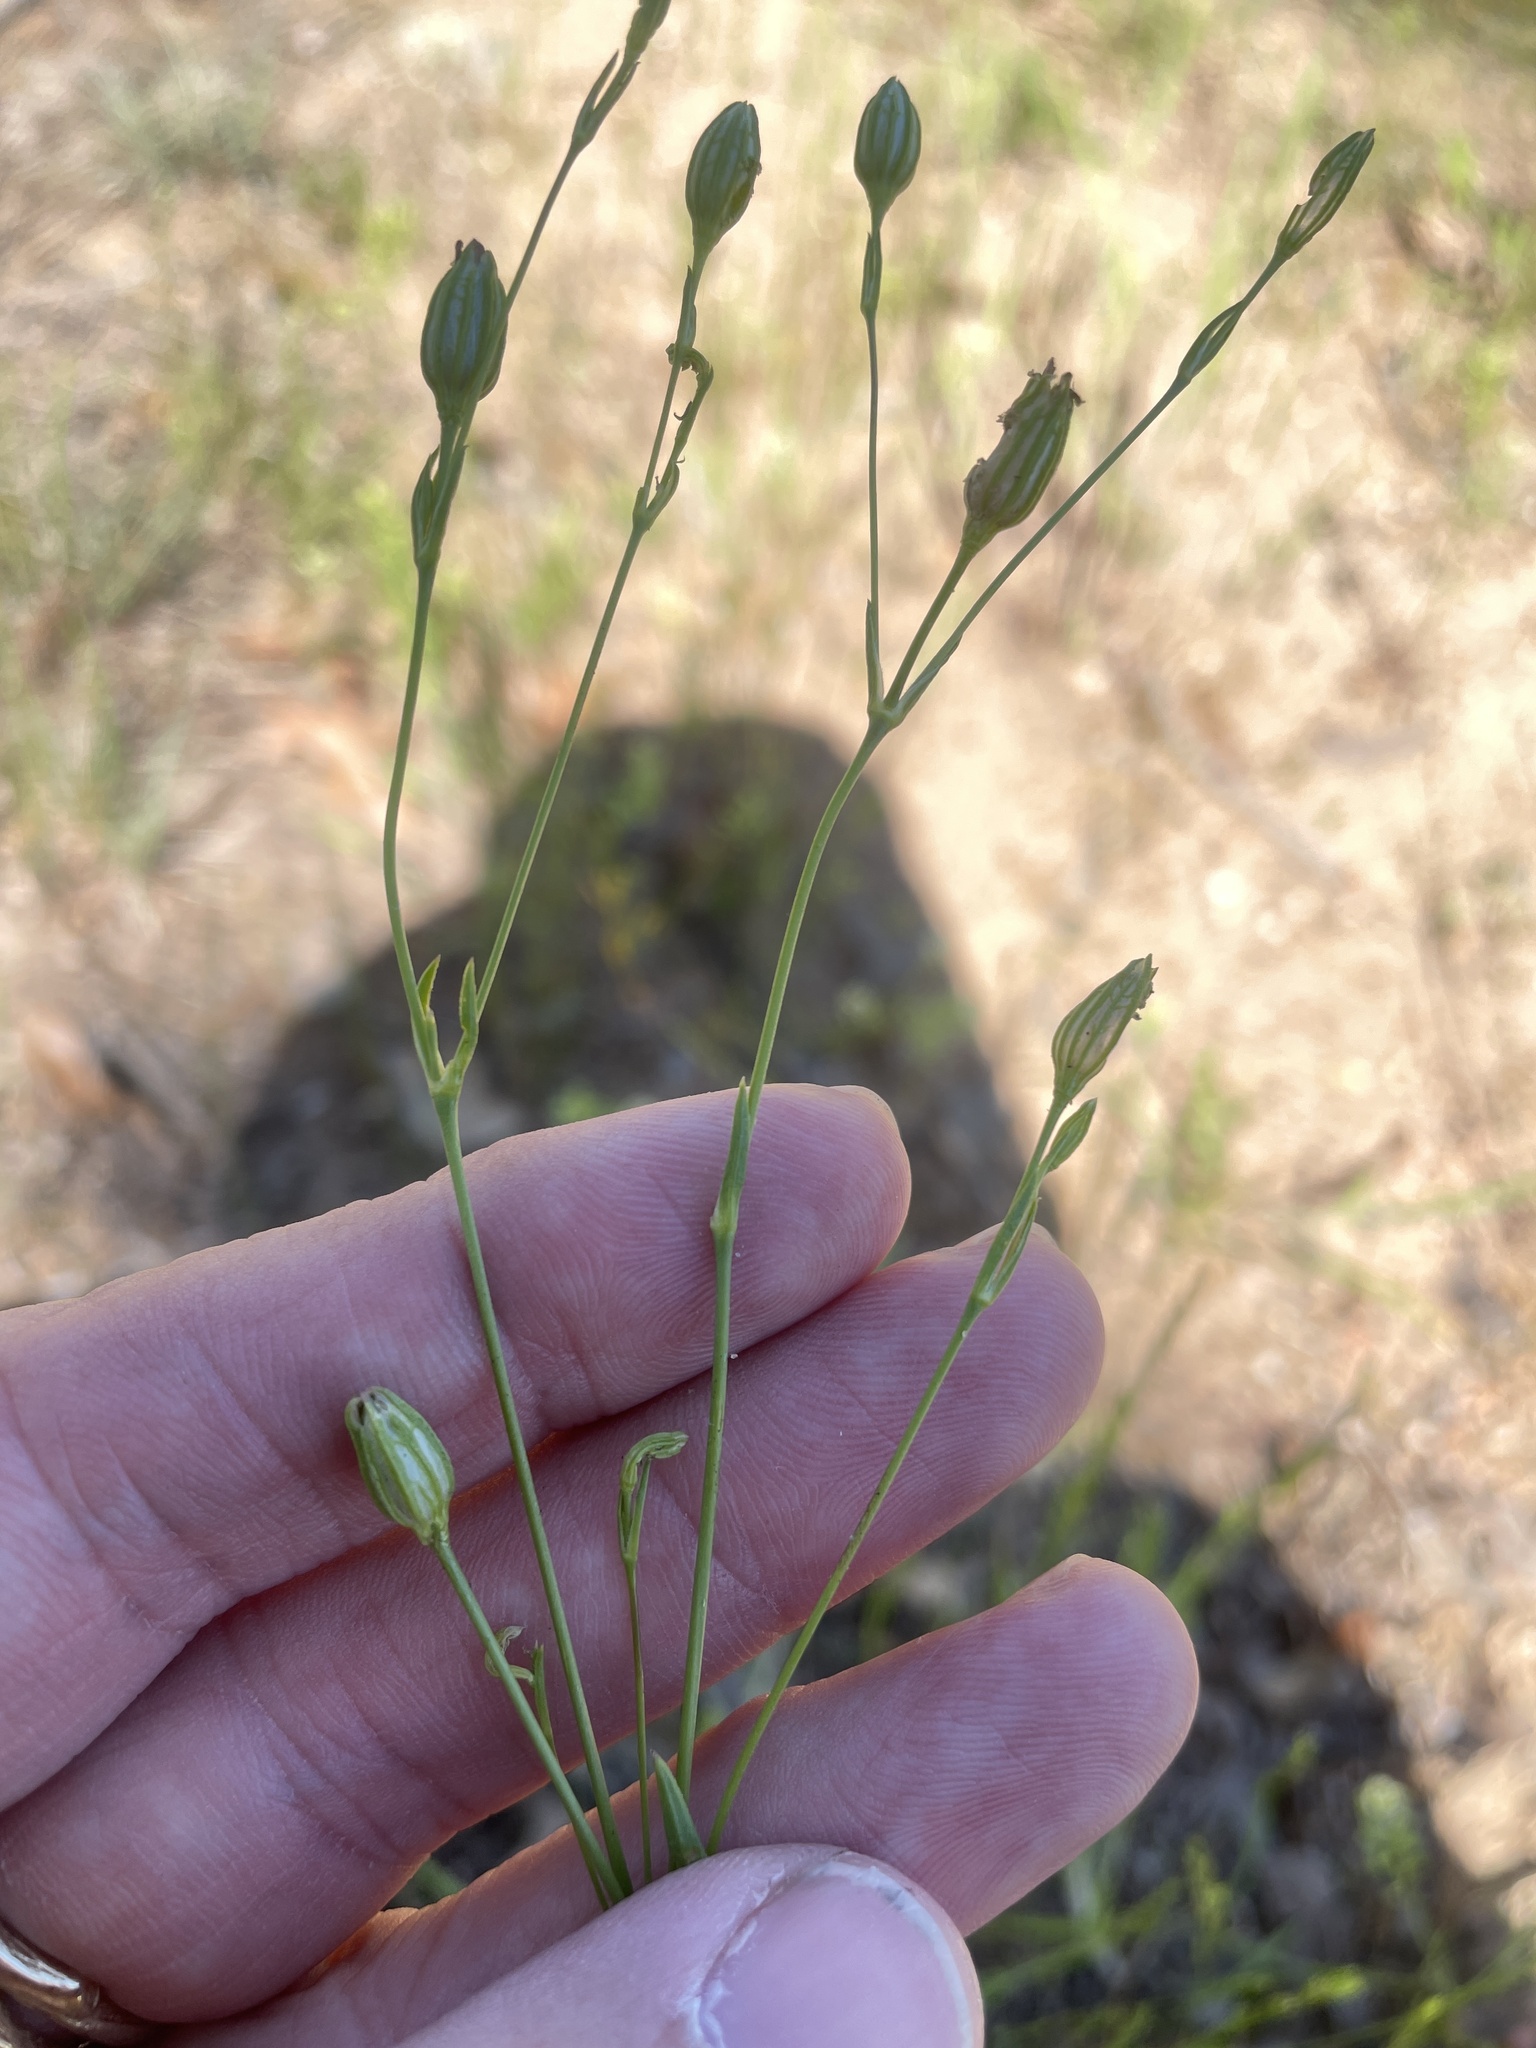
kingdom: Plantae
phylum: Tracheophyta
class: Magnoliopsida
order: Caryophyllales
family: Caryophyllaceae
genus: Silene
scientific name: Silene antirrhina
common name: Sleepy catchfly
